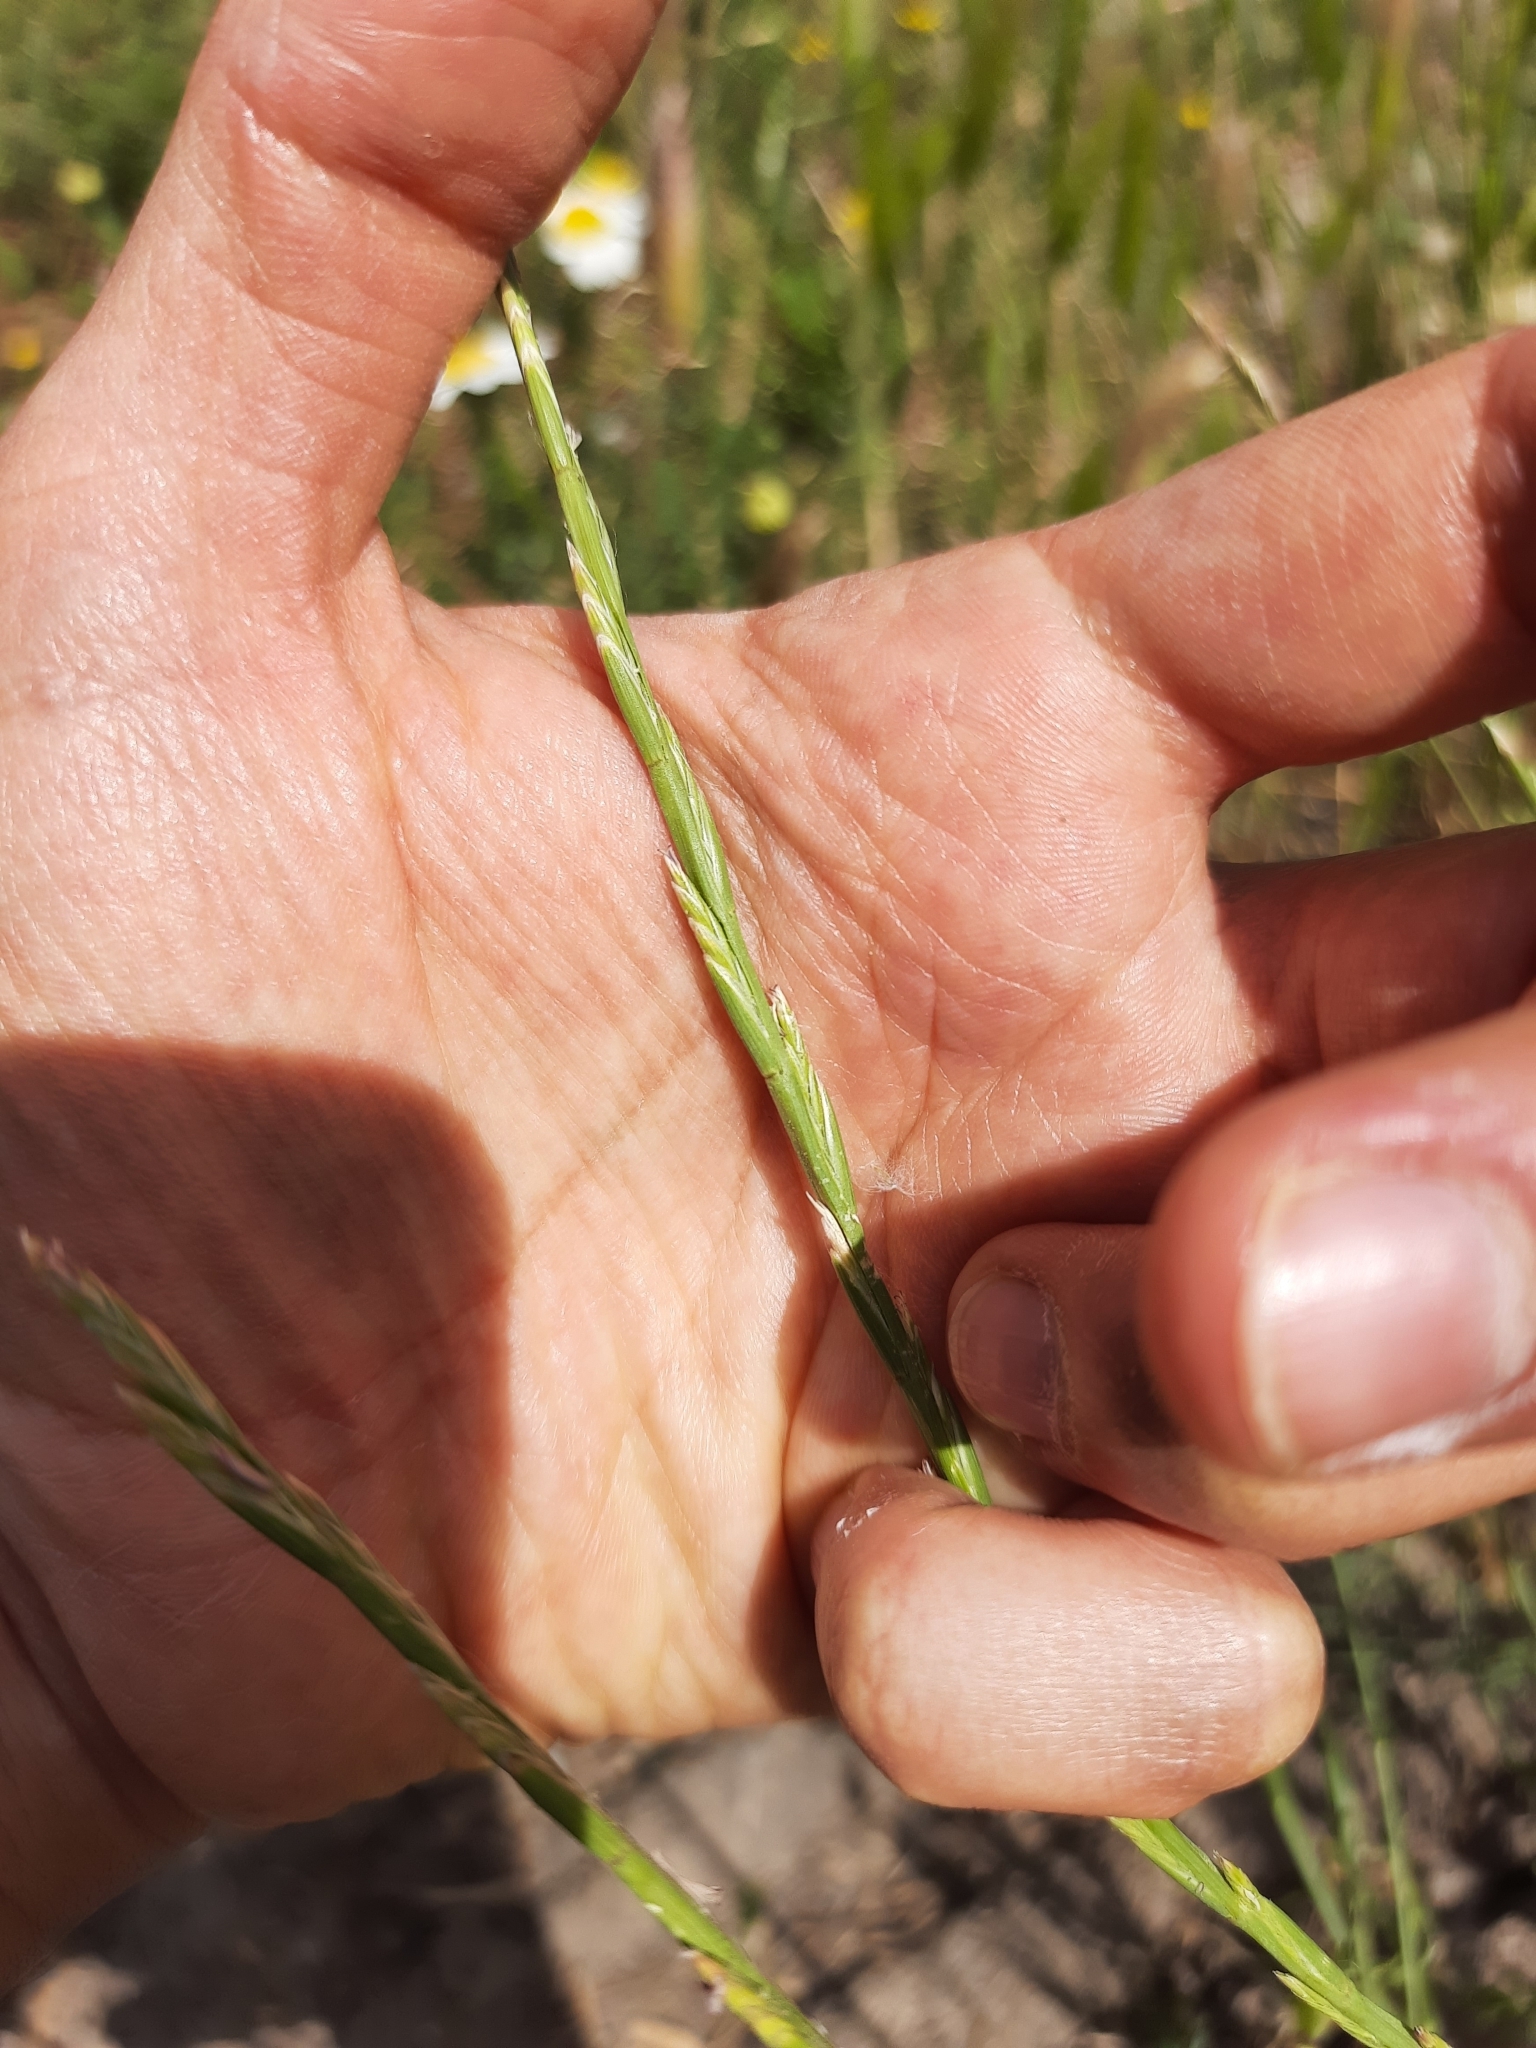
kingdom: Plantae
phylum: Tracheophyta
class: Liliopsida
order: Poales
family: Poaceae
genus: Lolium
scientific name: Lolium rigidum
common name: Wimmera ryegrass
